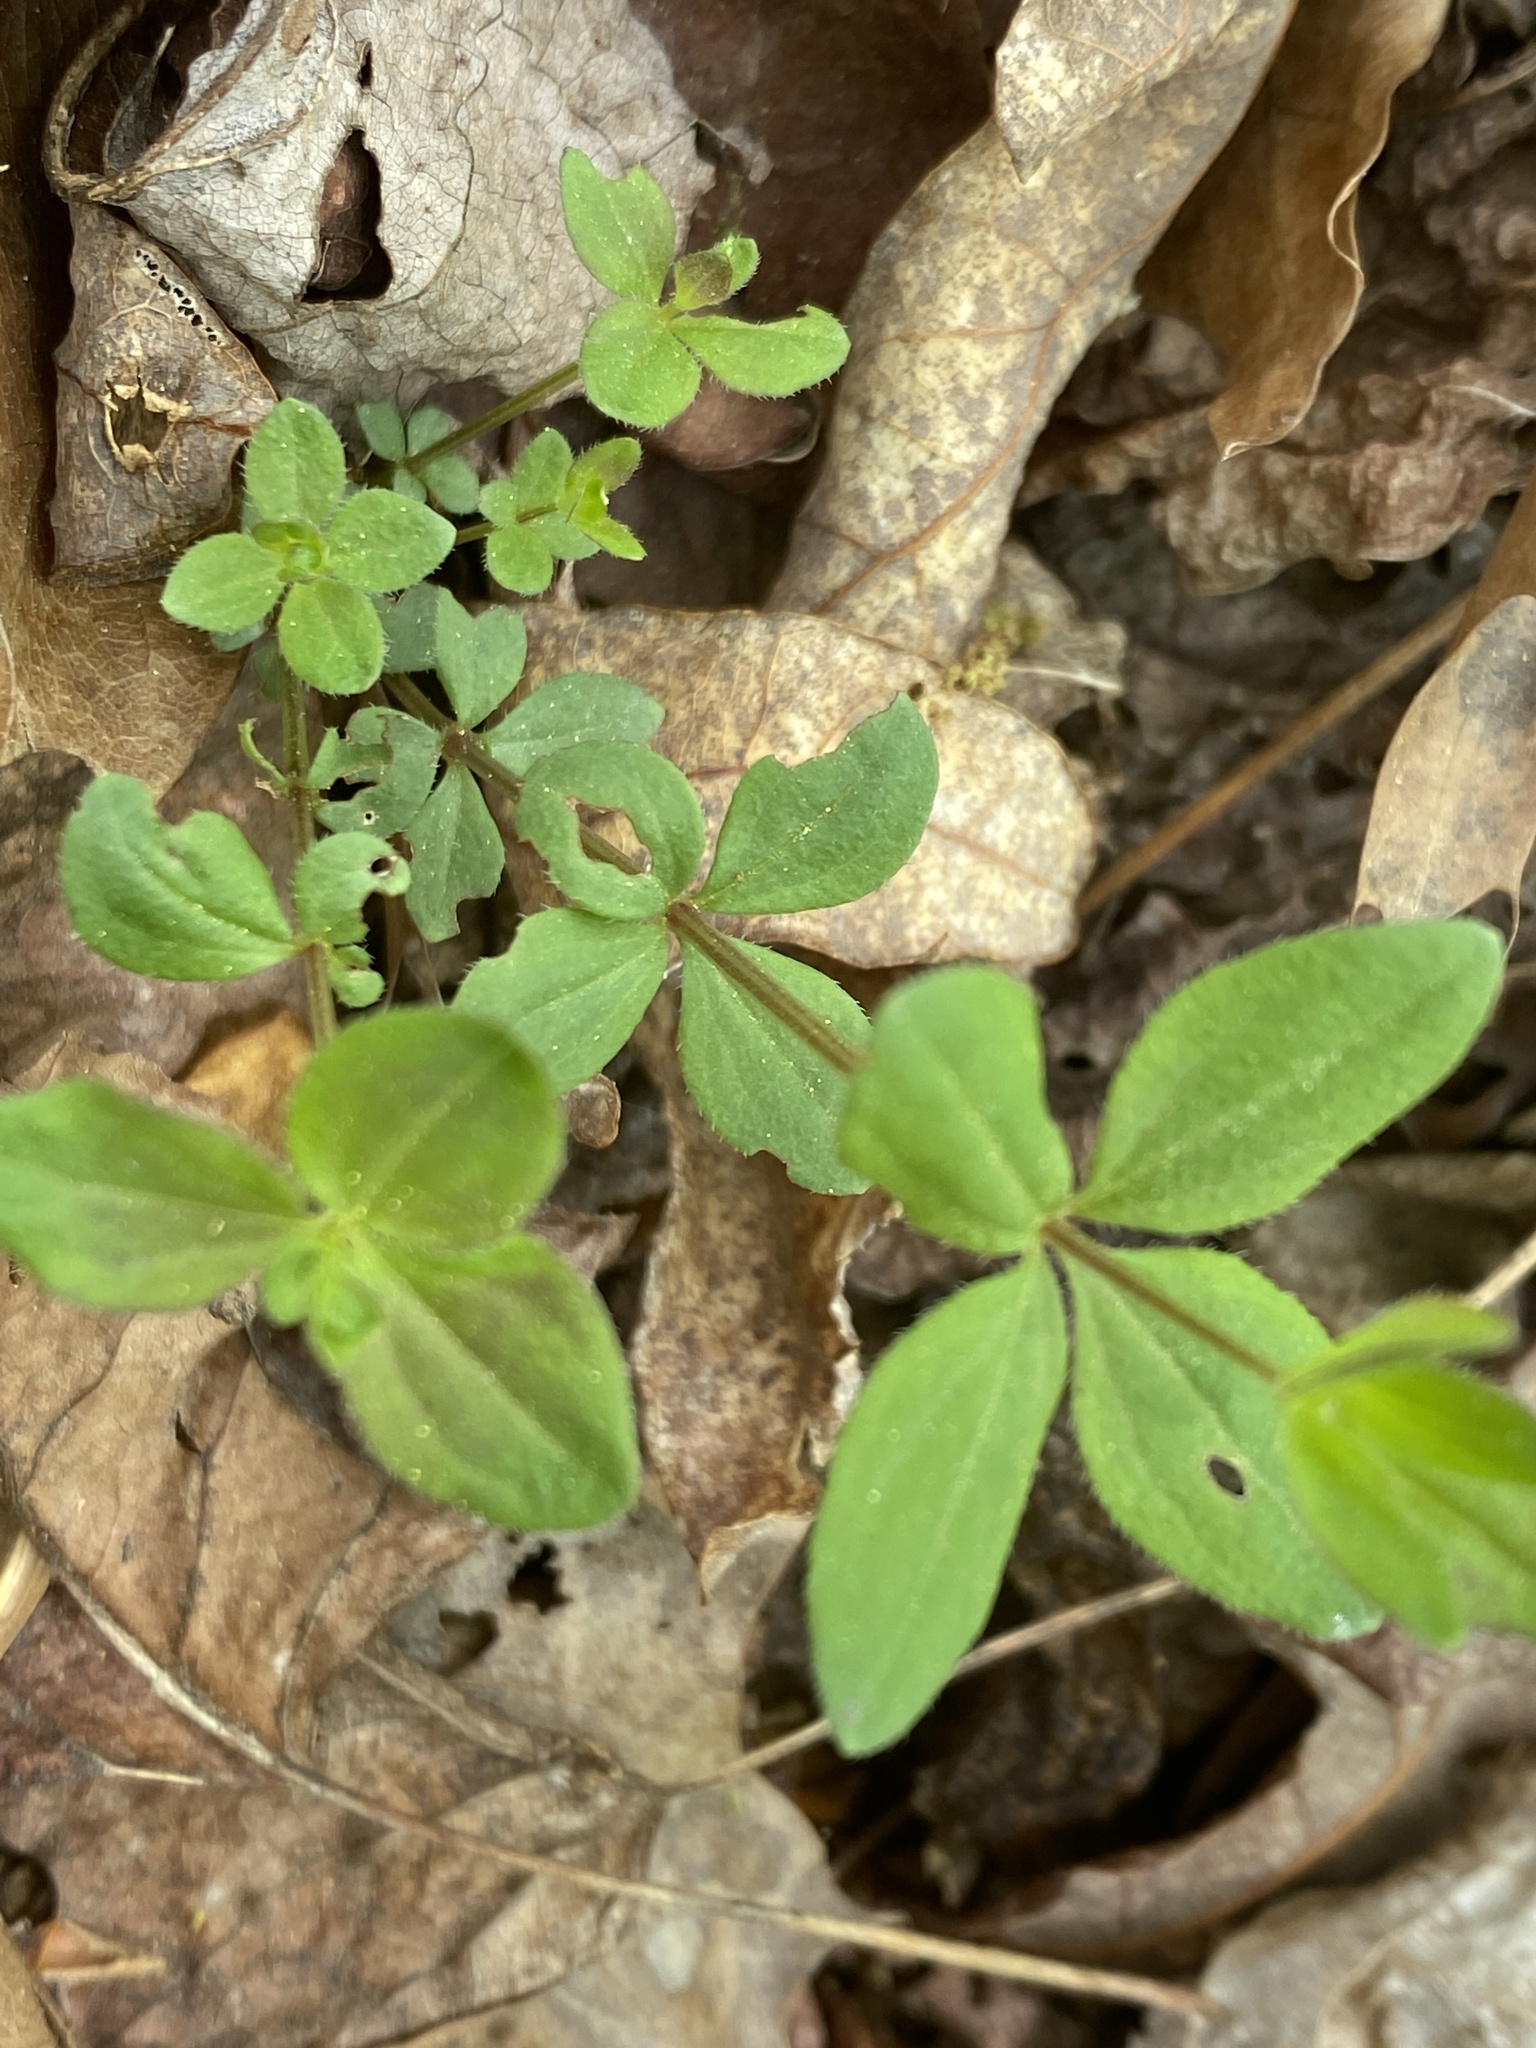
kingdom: Plantae
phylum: Tracheophyta
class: Magnoliopsida
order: Gentianales
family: Rubiaceae
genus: Galium
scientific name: Galium circaezans
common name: Forest bedstraw
